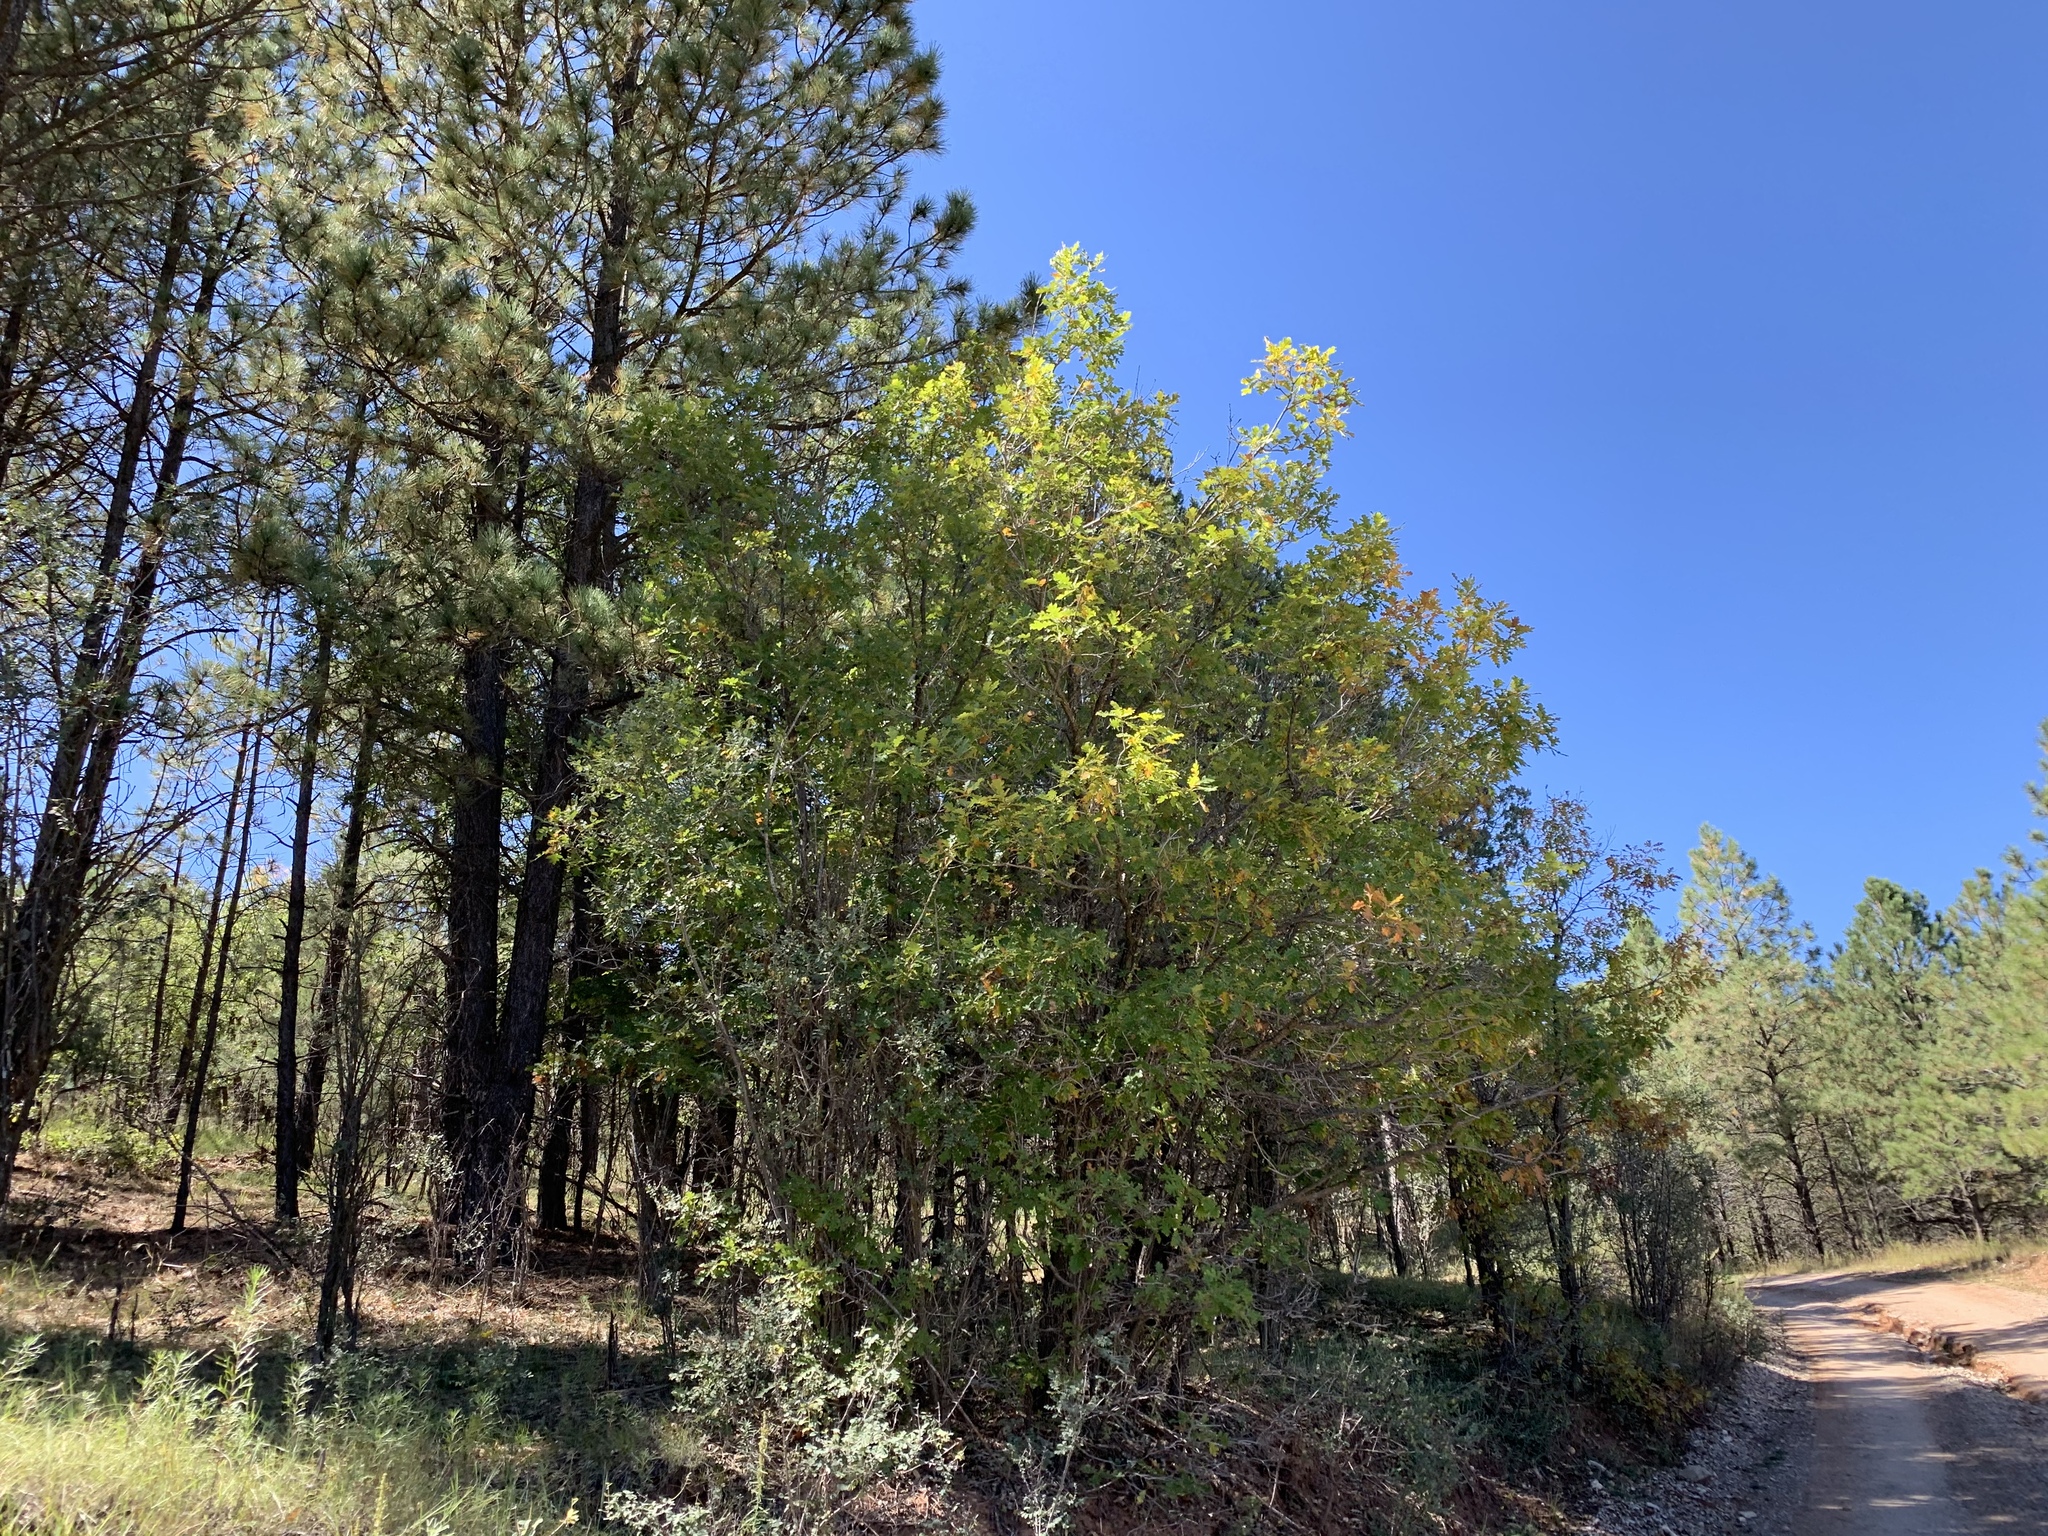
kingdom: Plantae
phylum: Tracheophyta
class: Magnoliopsida
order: Fagales
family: Fagaceae
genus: Quercus
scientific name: Quercus gambelii
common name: Gambel oak
